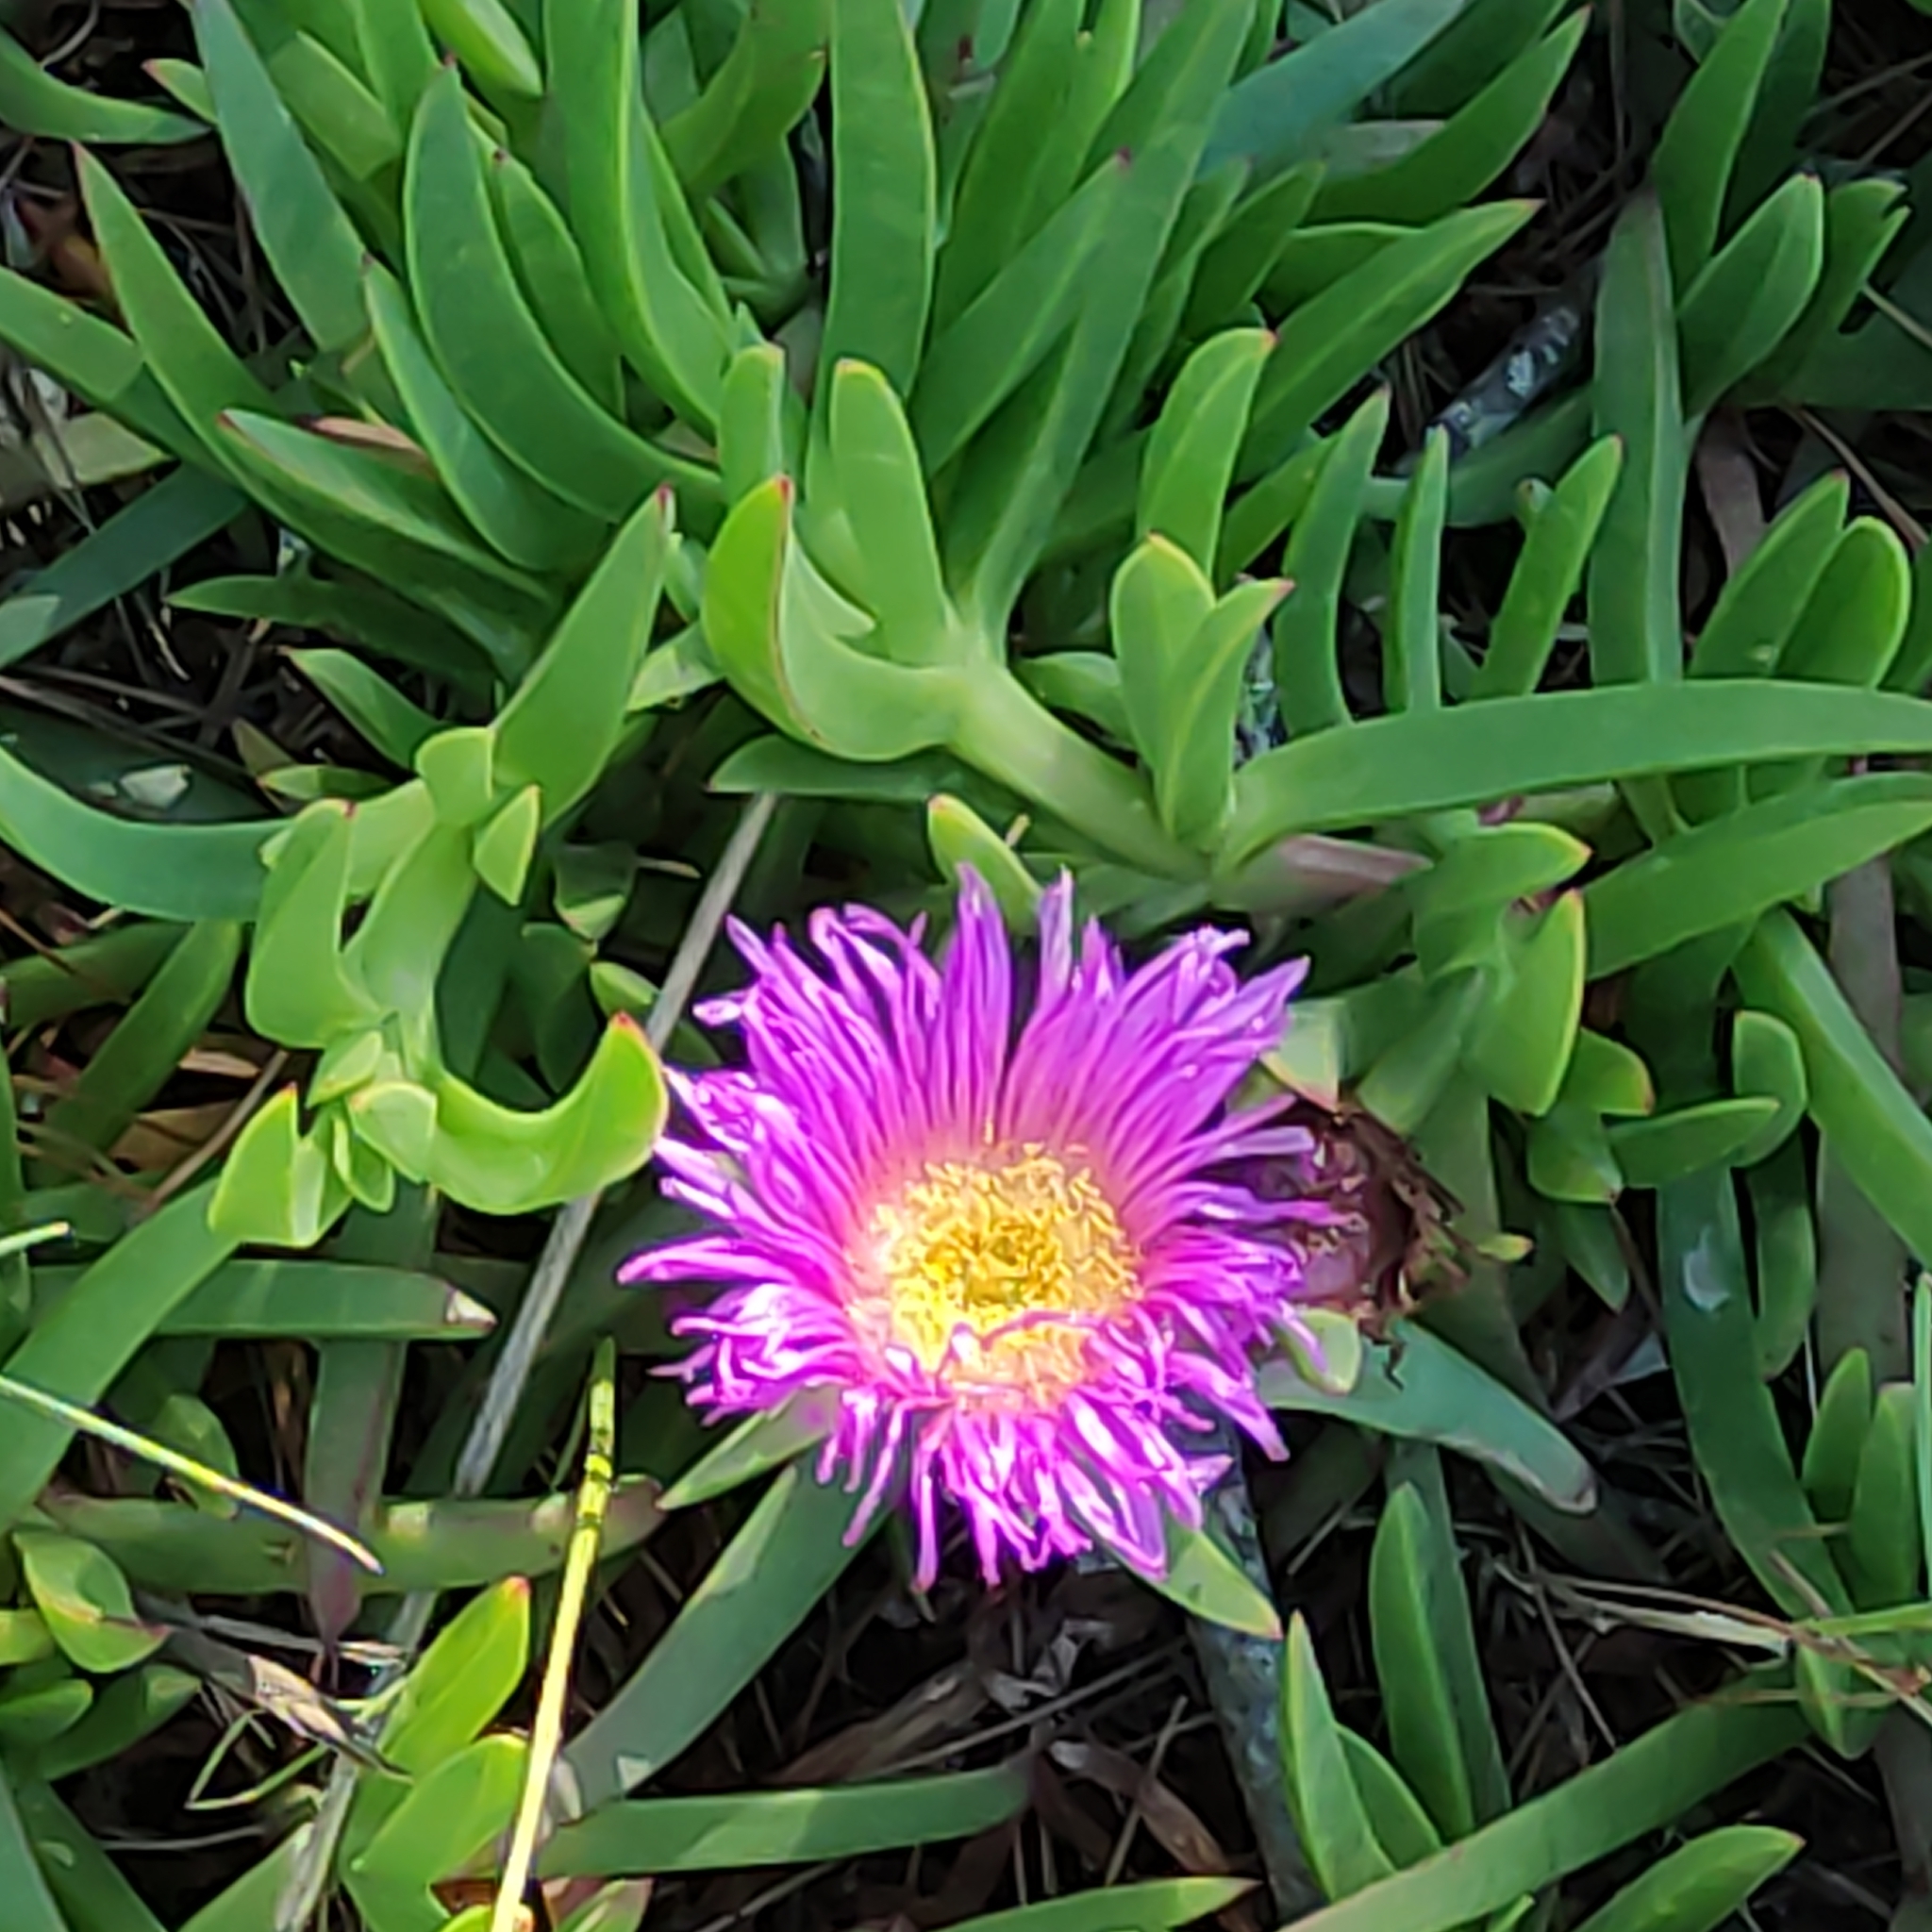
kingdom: Plantae
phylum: Tracheophyta
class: Magnoliopsida
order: Caryophyllales
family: Aizoaceae
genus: Carpobrotus
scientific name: Carpobrotus chilensis
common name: Sea fig
